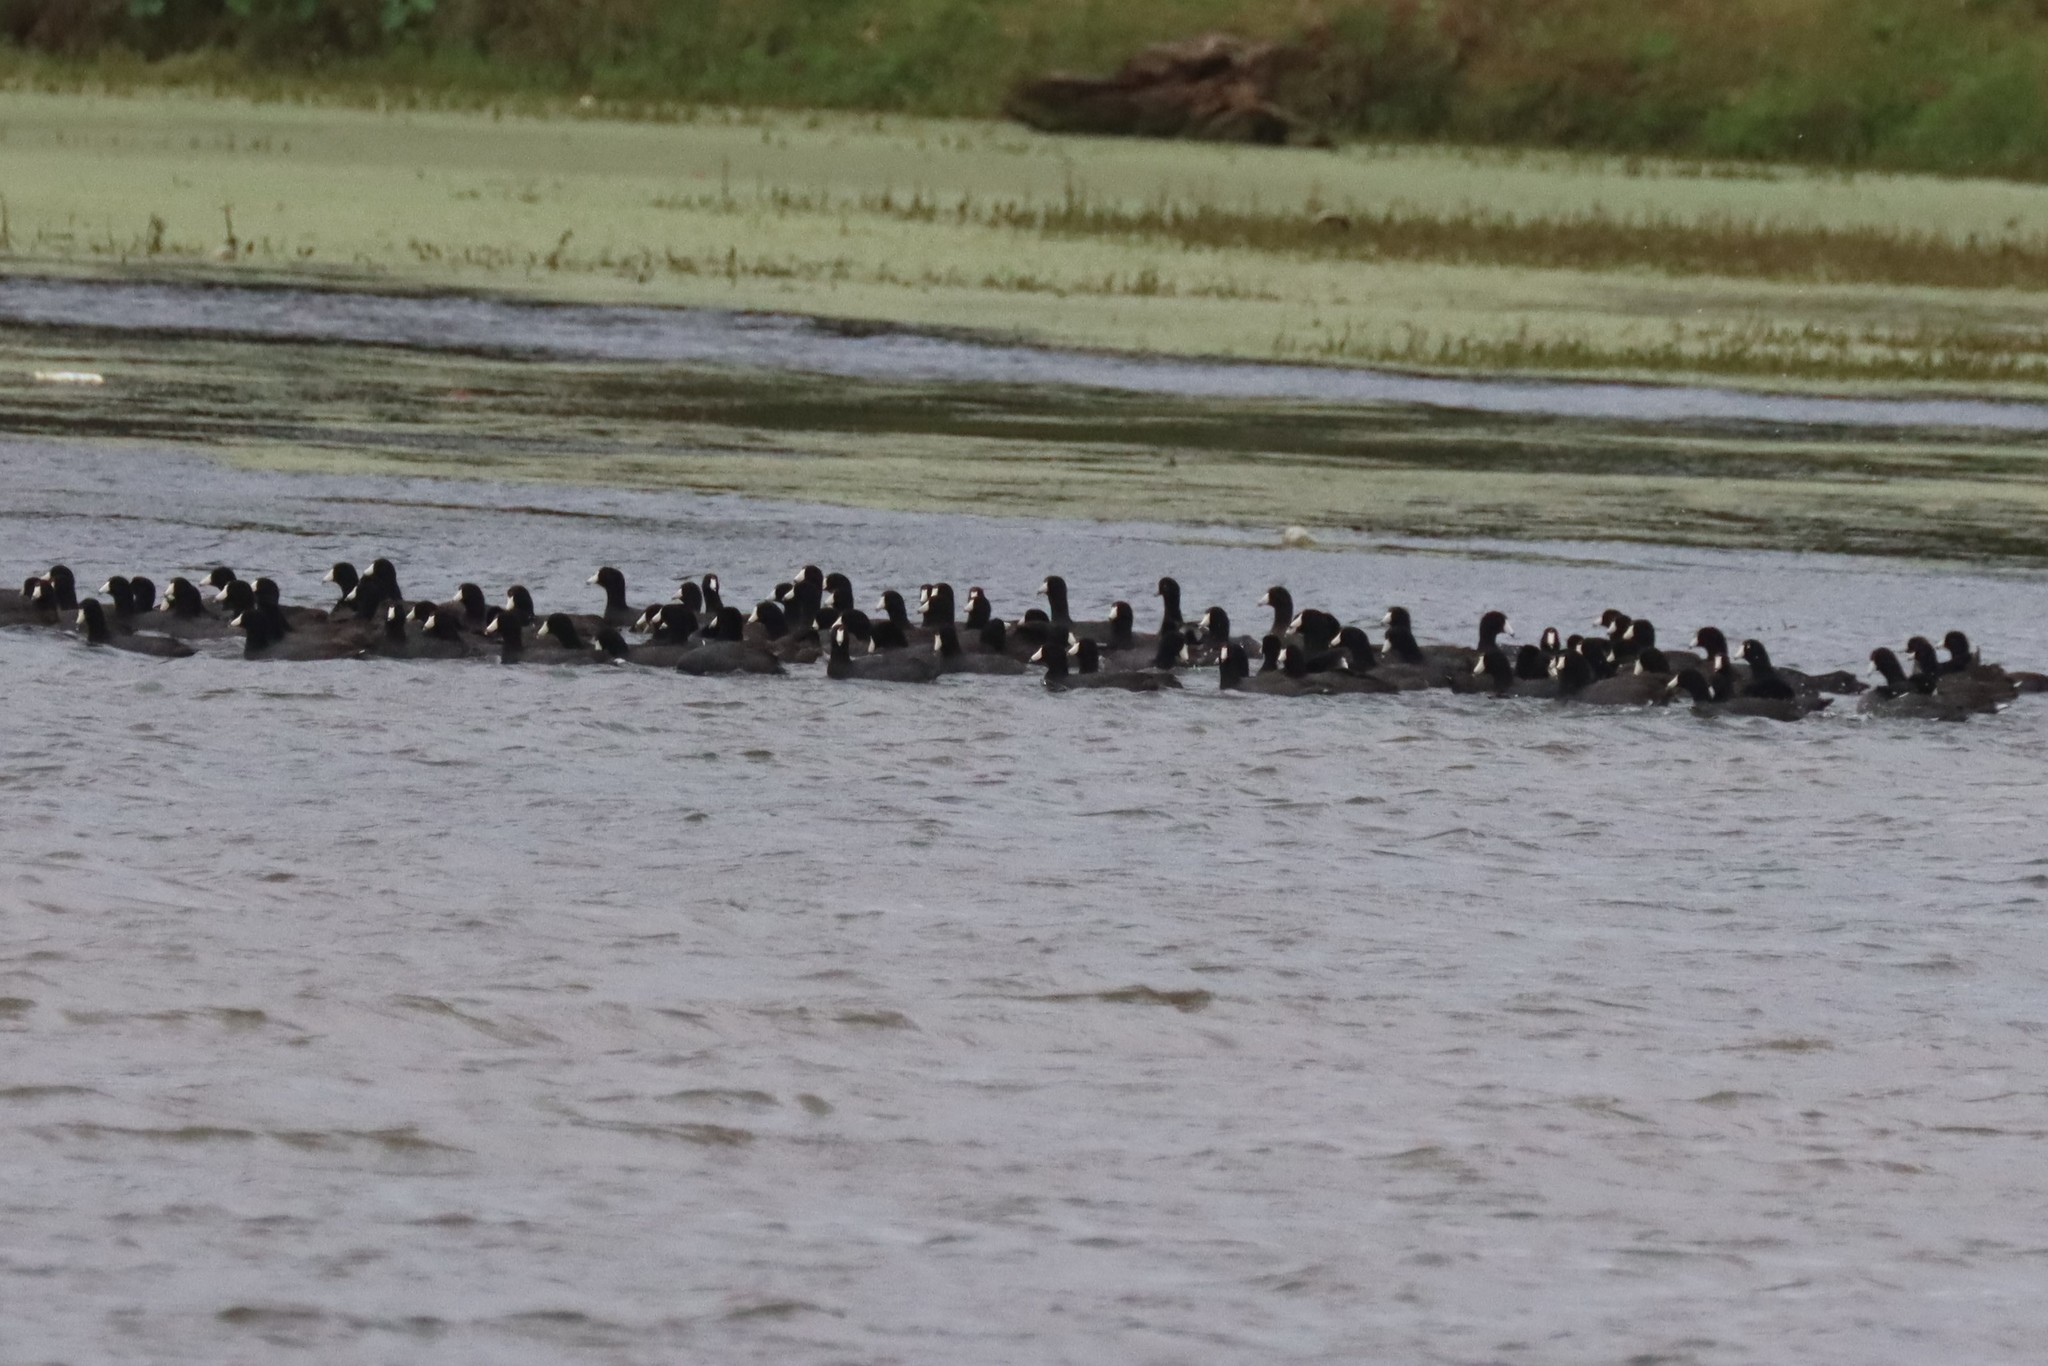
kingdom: Animalia
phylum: Chordata
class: Aves
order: Gruiformes
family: Rallidae
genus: Fulica
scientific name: Fulica americana
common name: American coot
